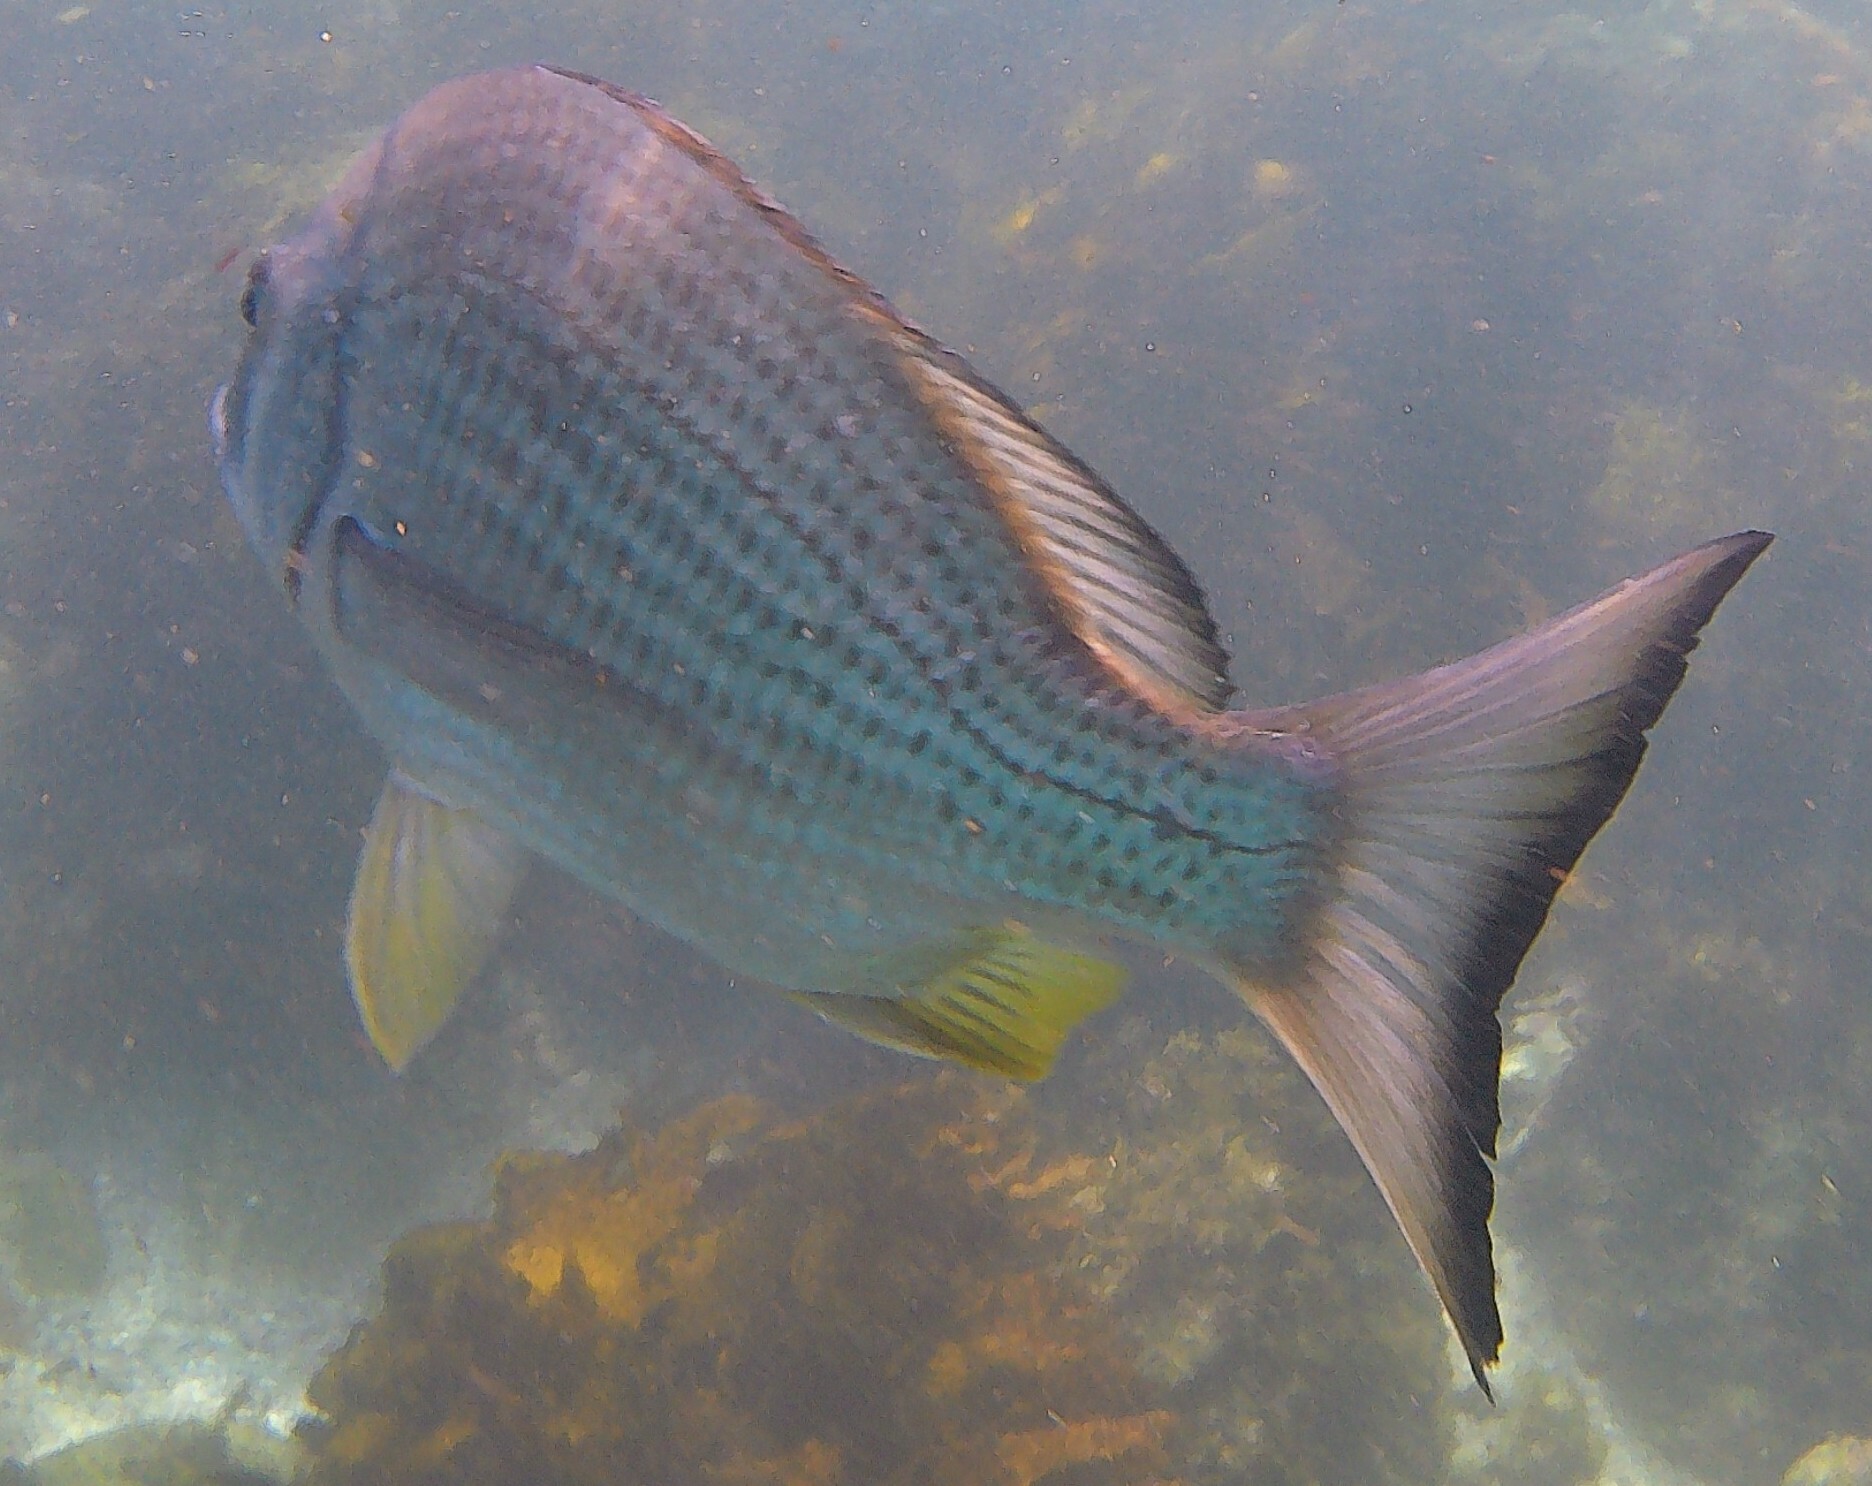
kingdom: Animalia
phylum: Chordata
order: Perciformes
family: Sparidae
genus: Acanthopagrus
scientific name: Acanthopagrus australis
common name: Surf bream
